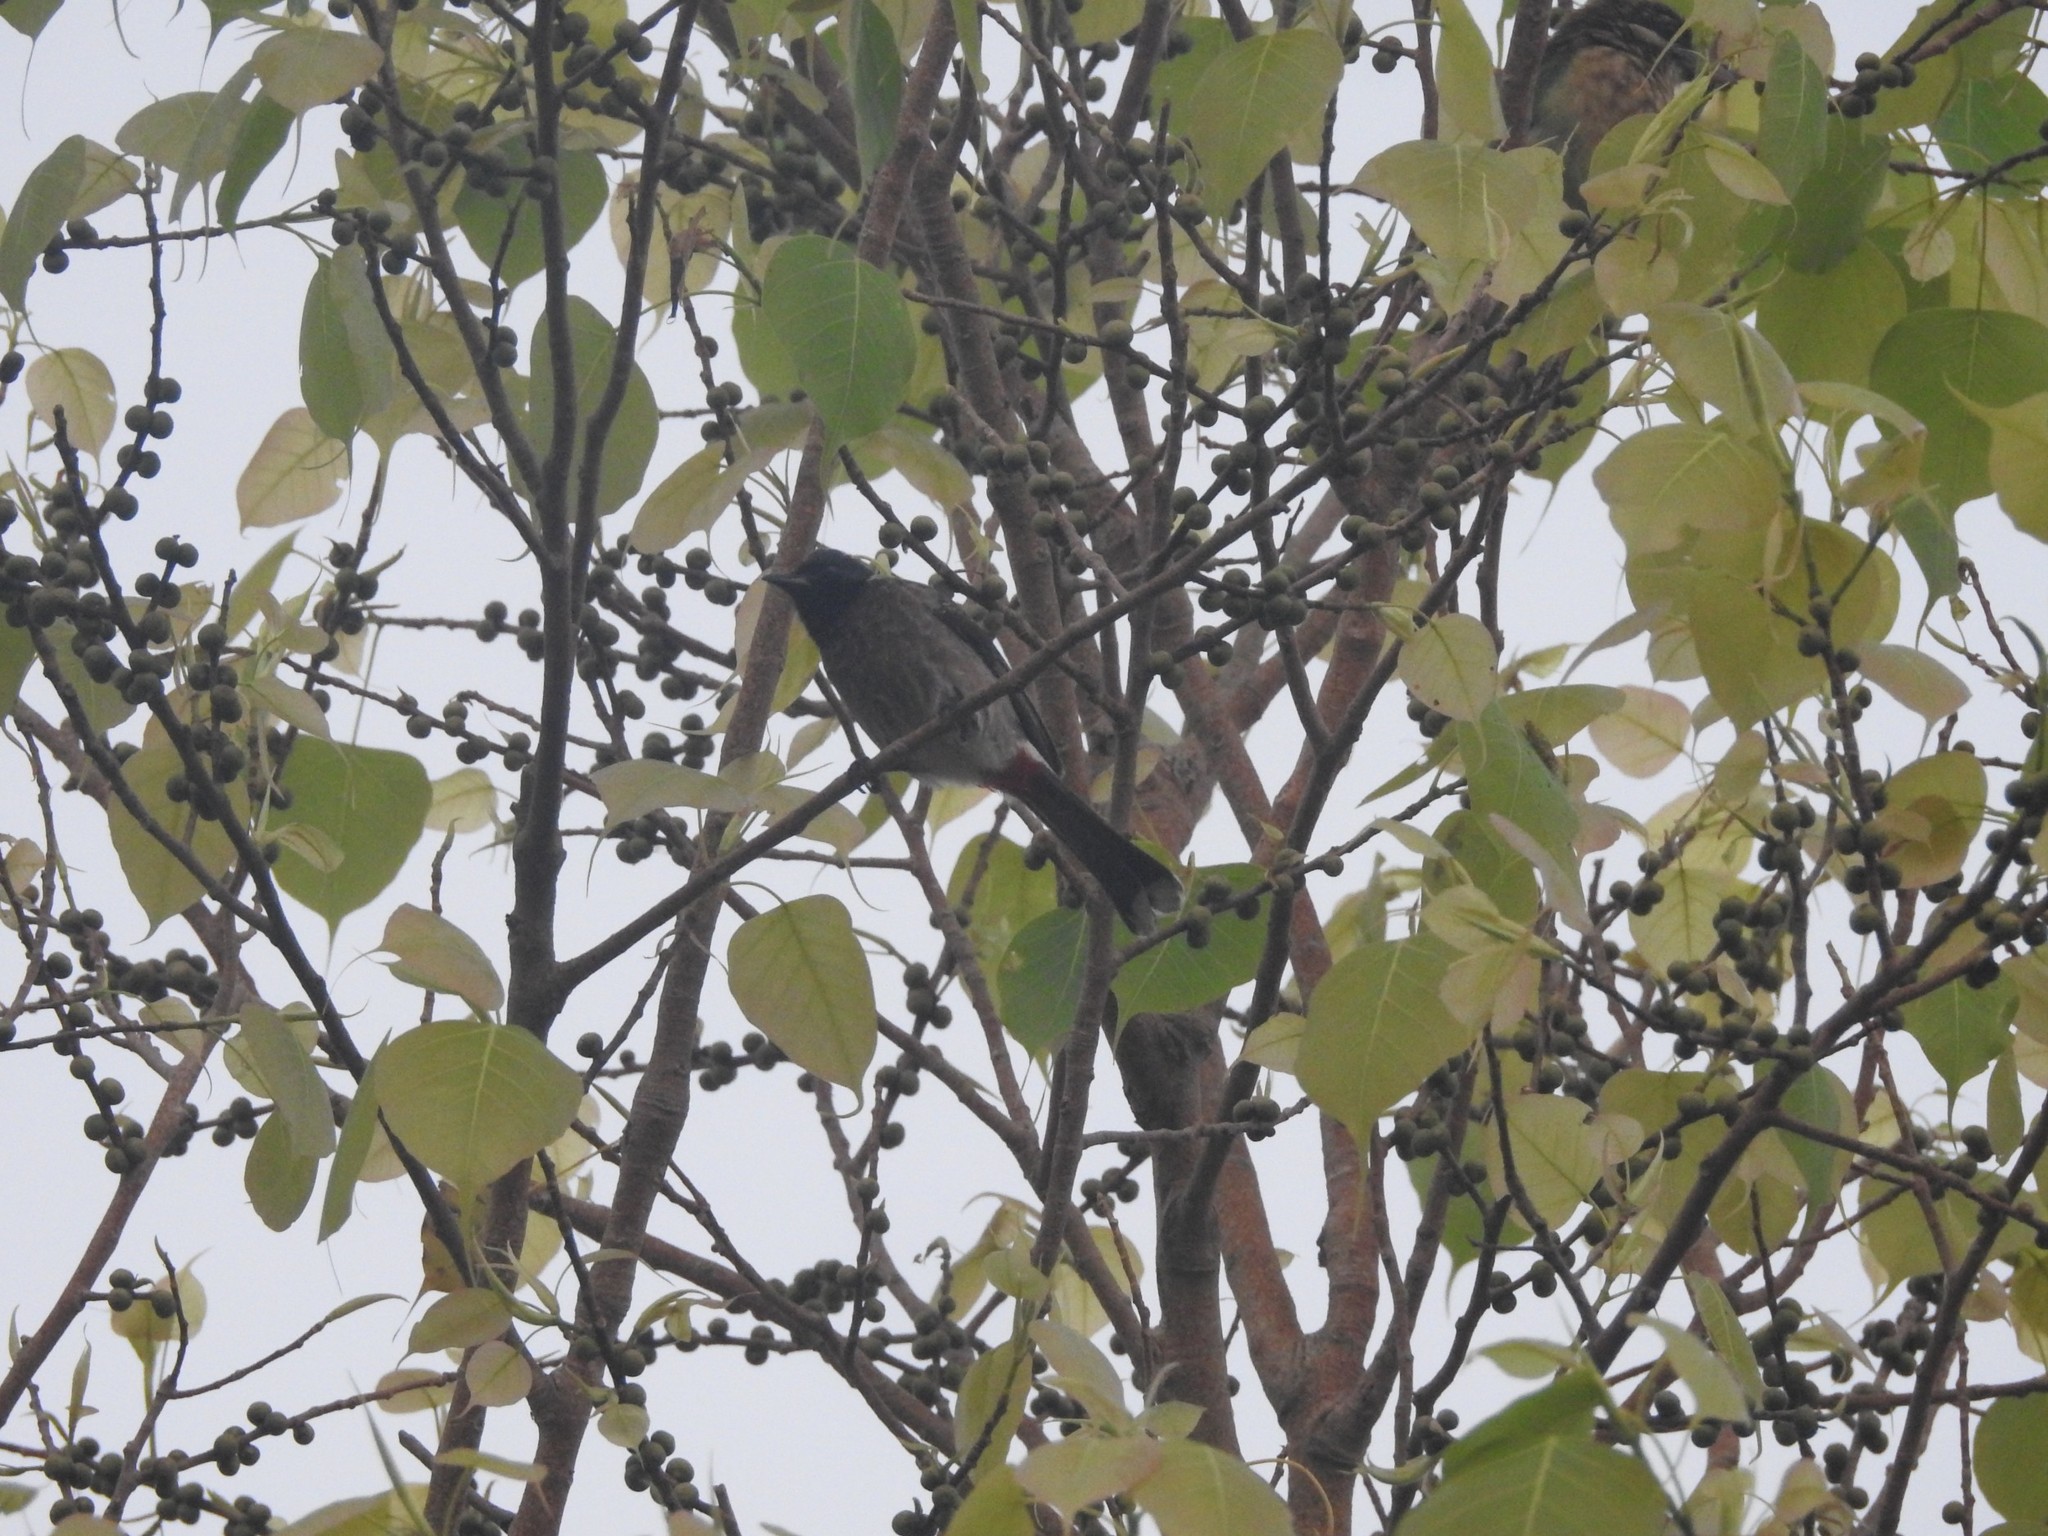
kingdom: Animalia
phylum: Chordata
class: Aves
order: Passeriformes
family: Pycnonotidae
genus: Pycnonotus
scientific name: Pycnonotus cafer
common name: Red-vented bulbul
